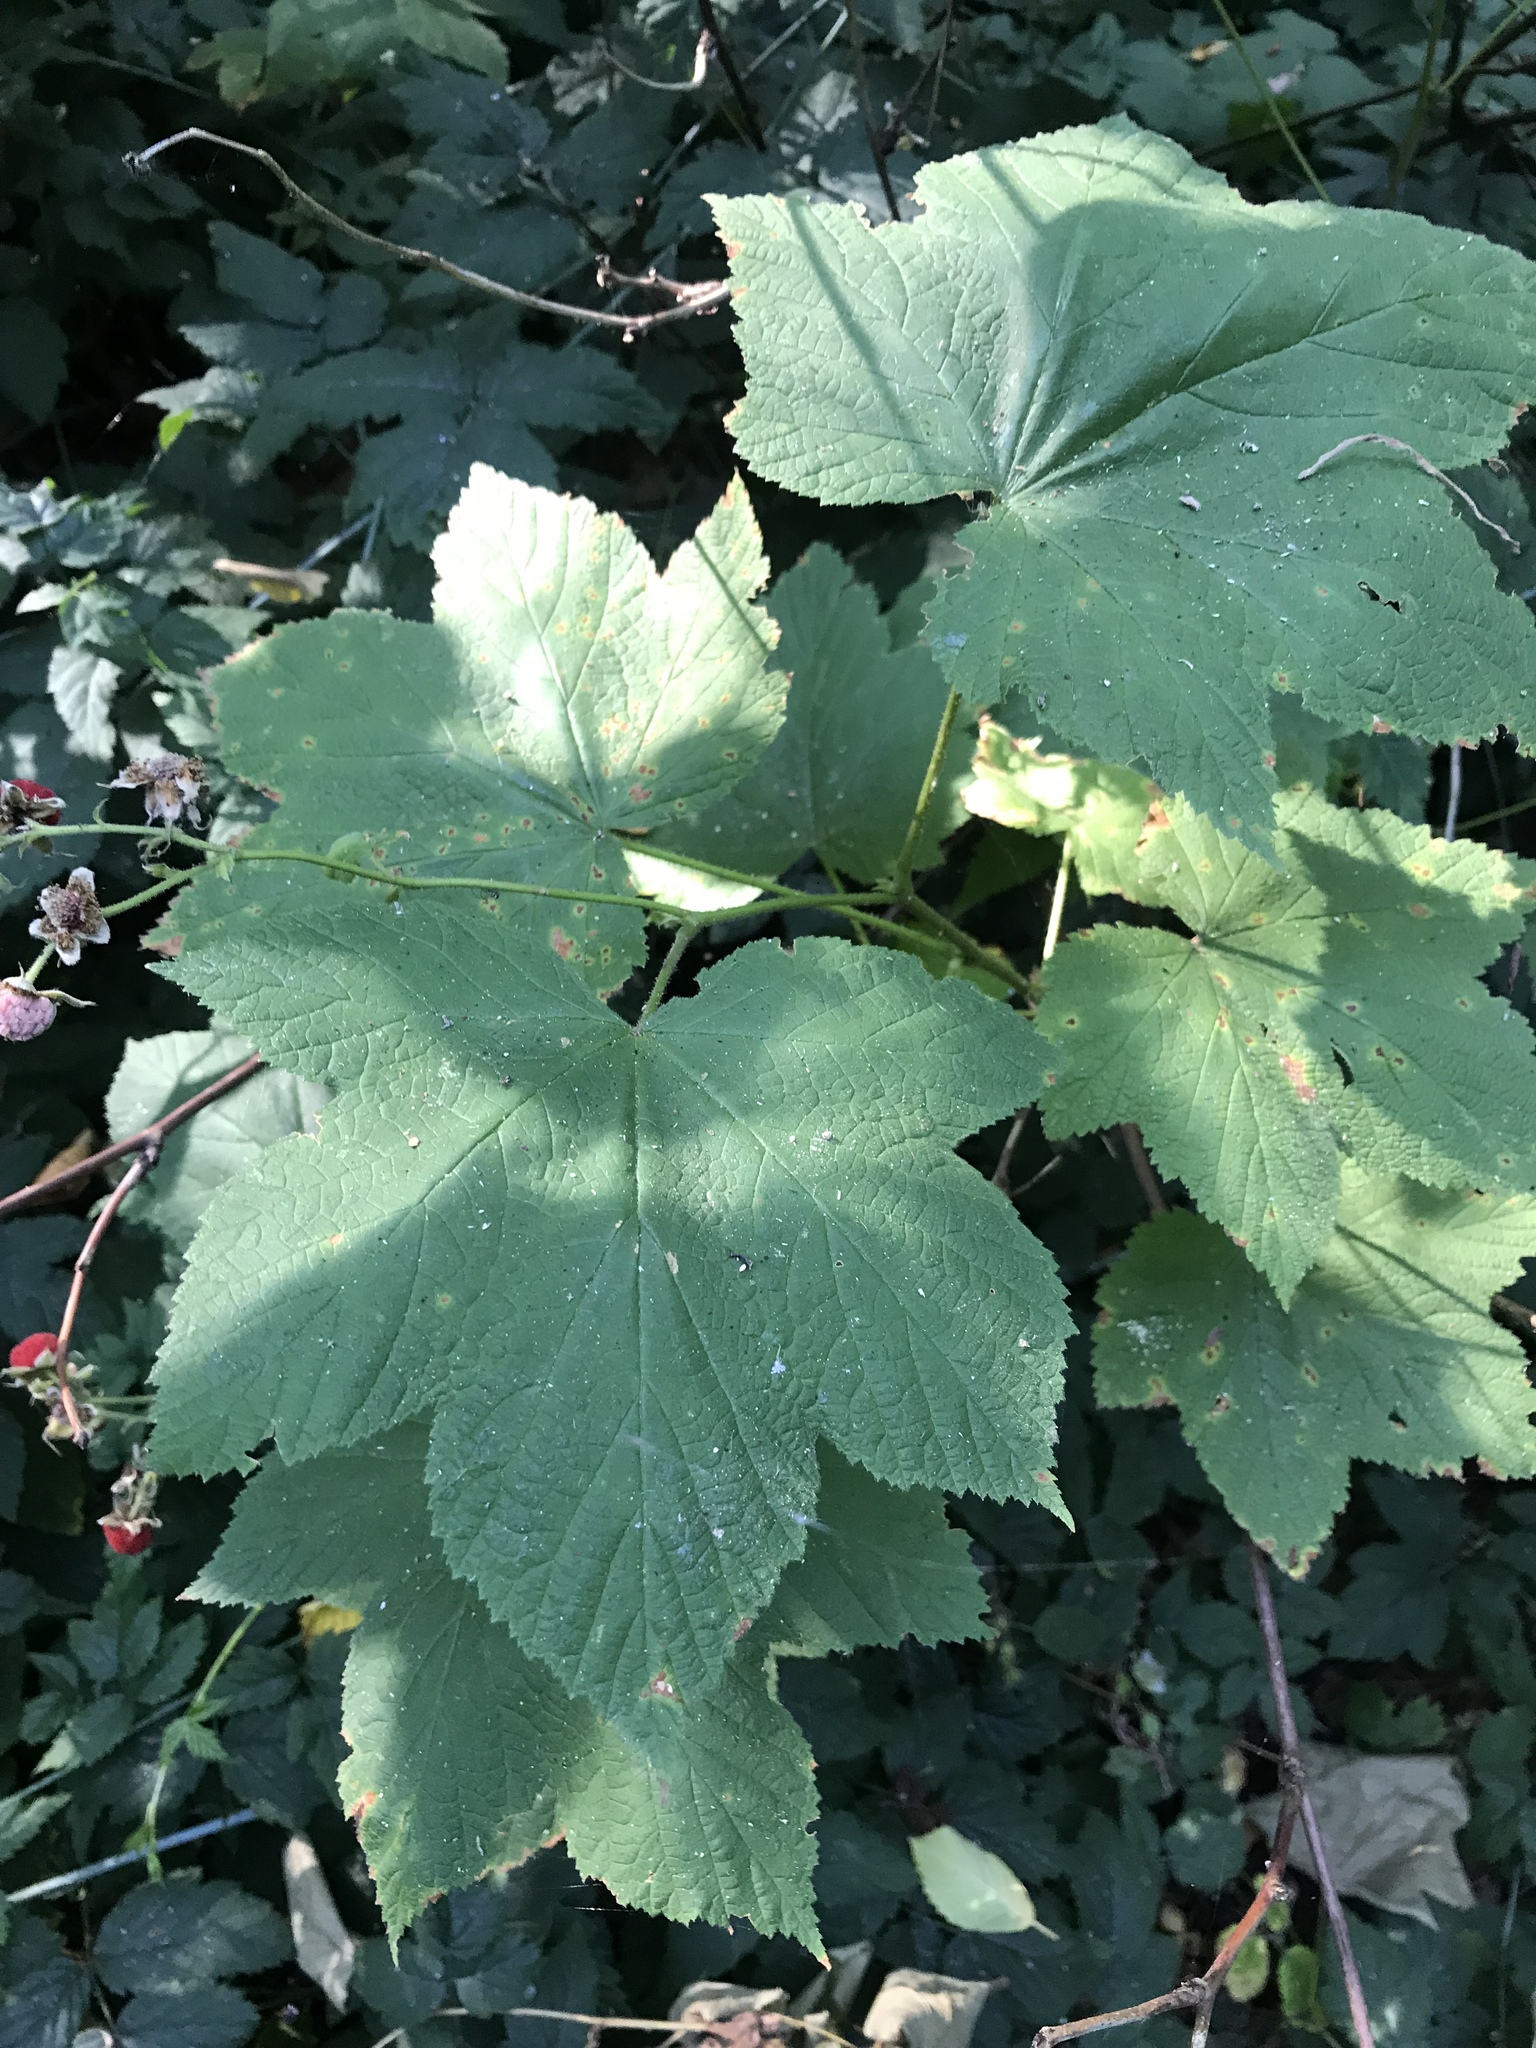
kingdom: Plantae
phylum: Tracheophyta
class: Magnoliopsida
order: Rosales
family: Rosaceae
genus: Rubus
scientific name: Rubus parviflorus
